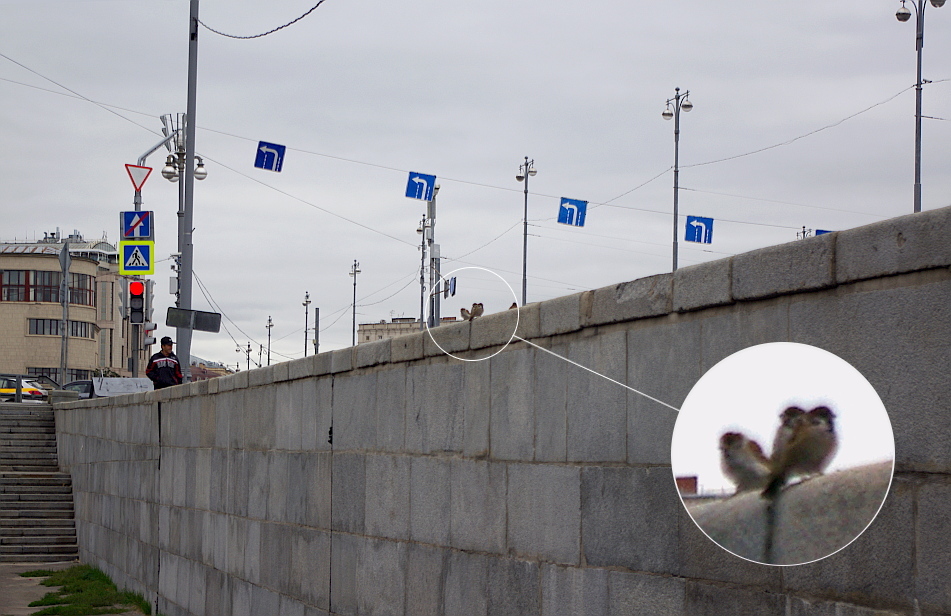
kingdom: Animalia
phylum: Chordata
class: Aves
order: Passeriformes
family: Passeridae
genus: Passer
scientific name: Passer montanus
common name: Eurasian tree sparrow
